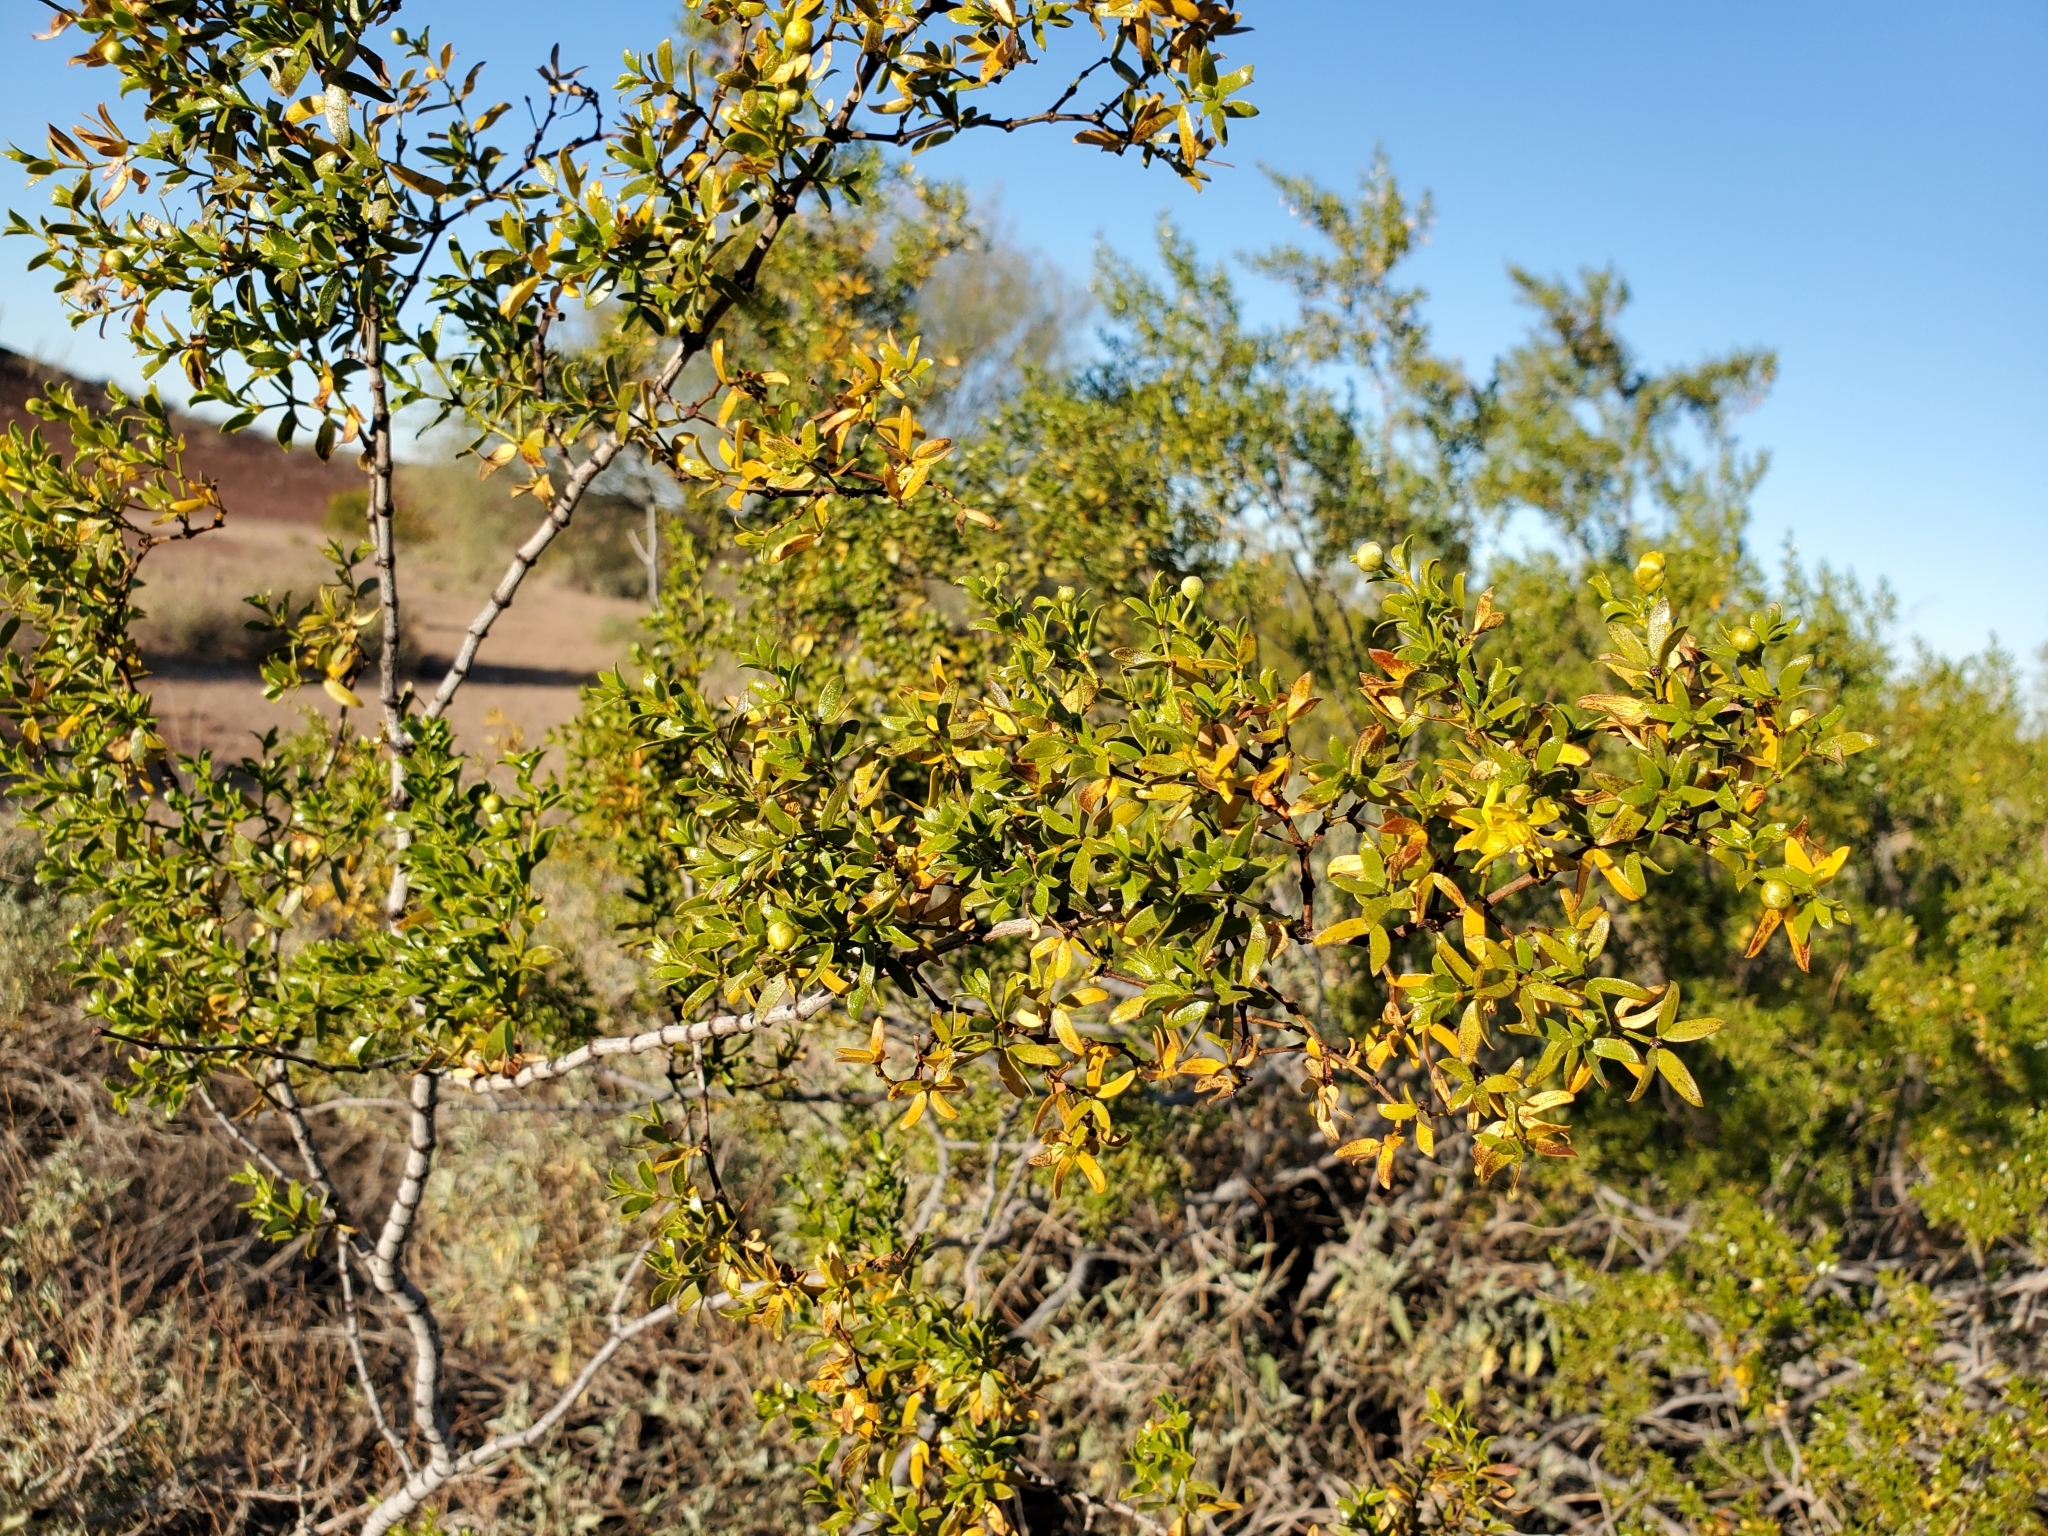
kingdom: Plantae
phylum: Tracheophyta
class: Magnoliopsida
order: Zygophyllales
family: Zygophyllaceae
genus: Larrea
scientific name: Larrea tridentata
